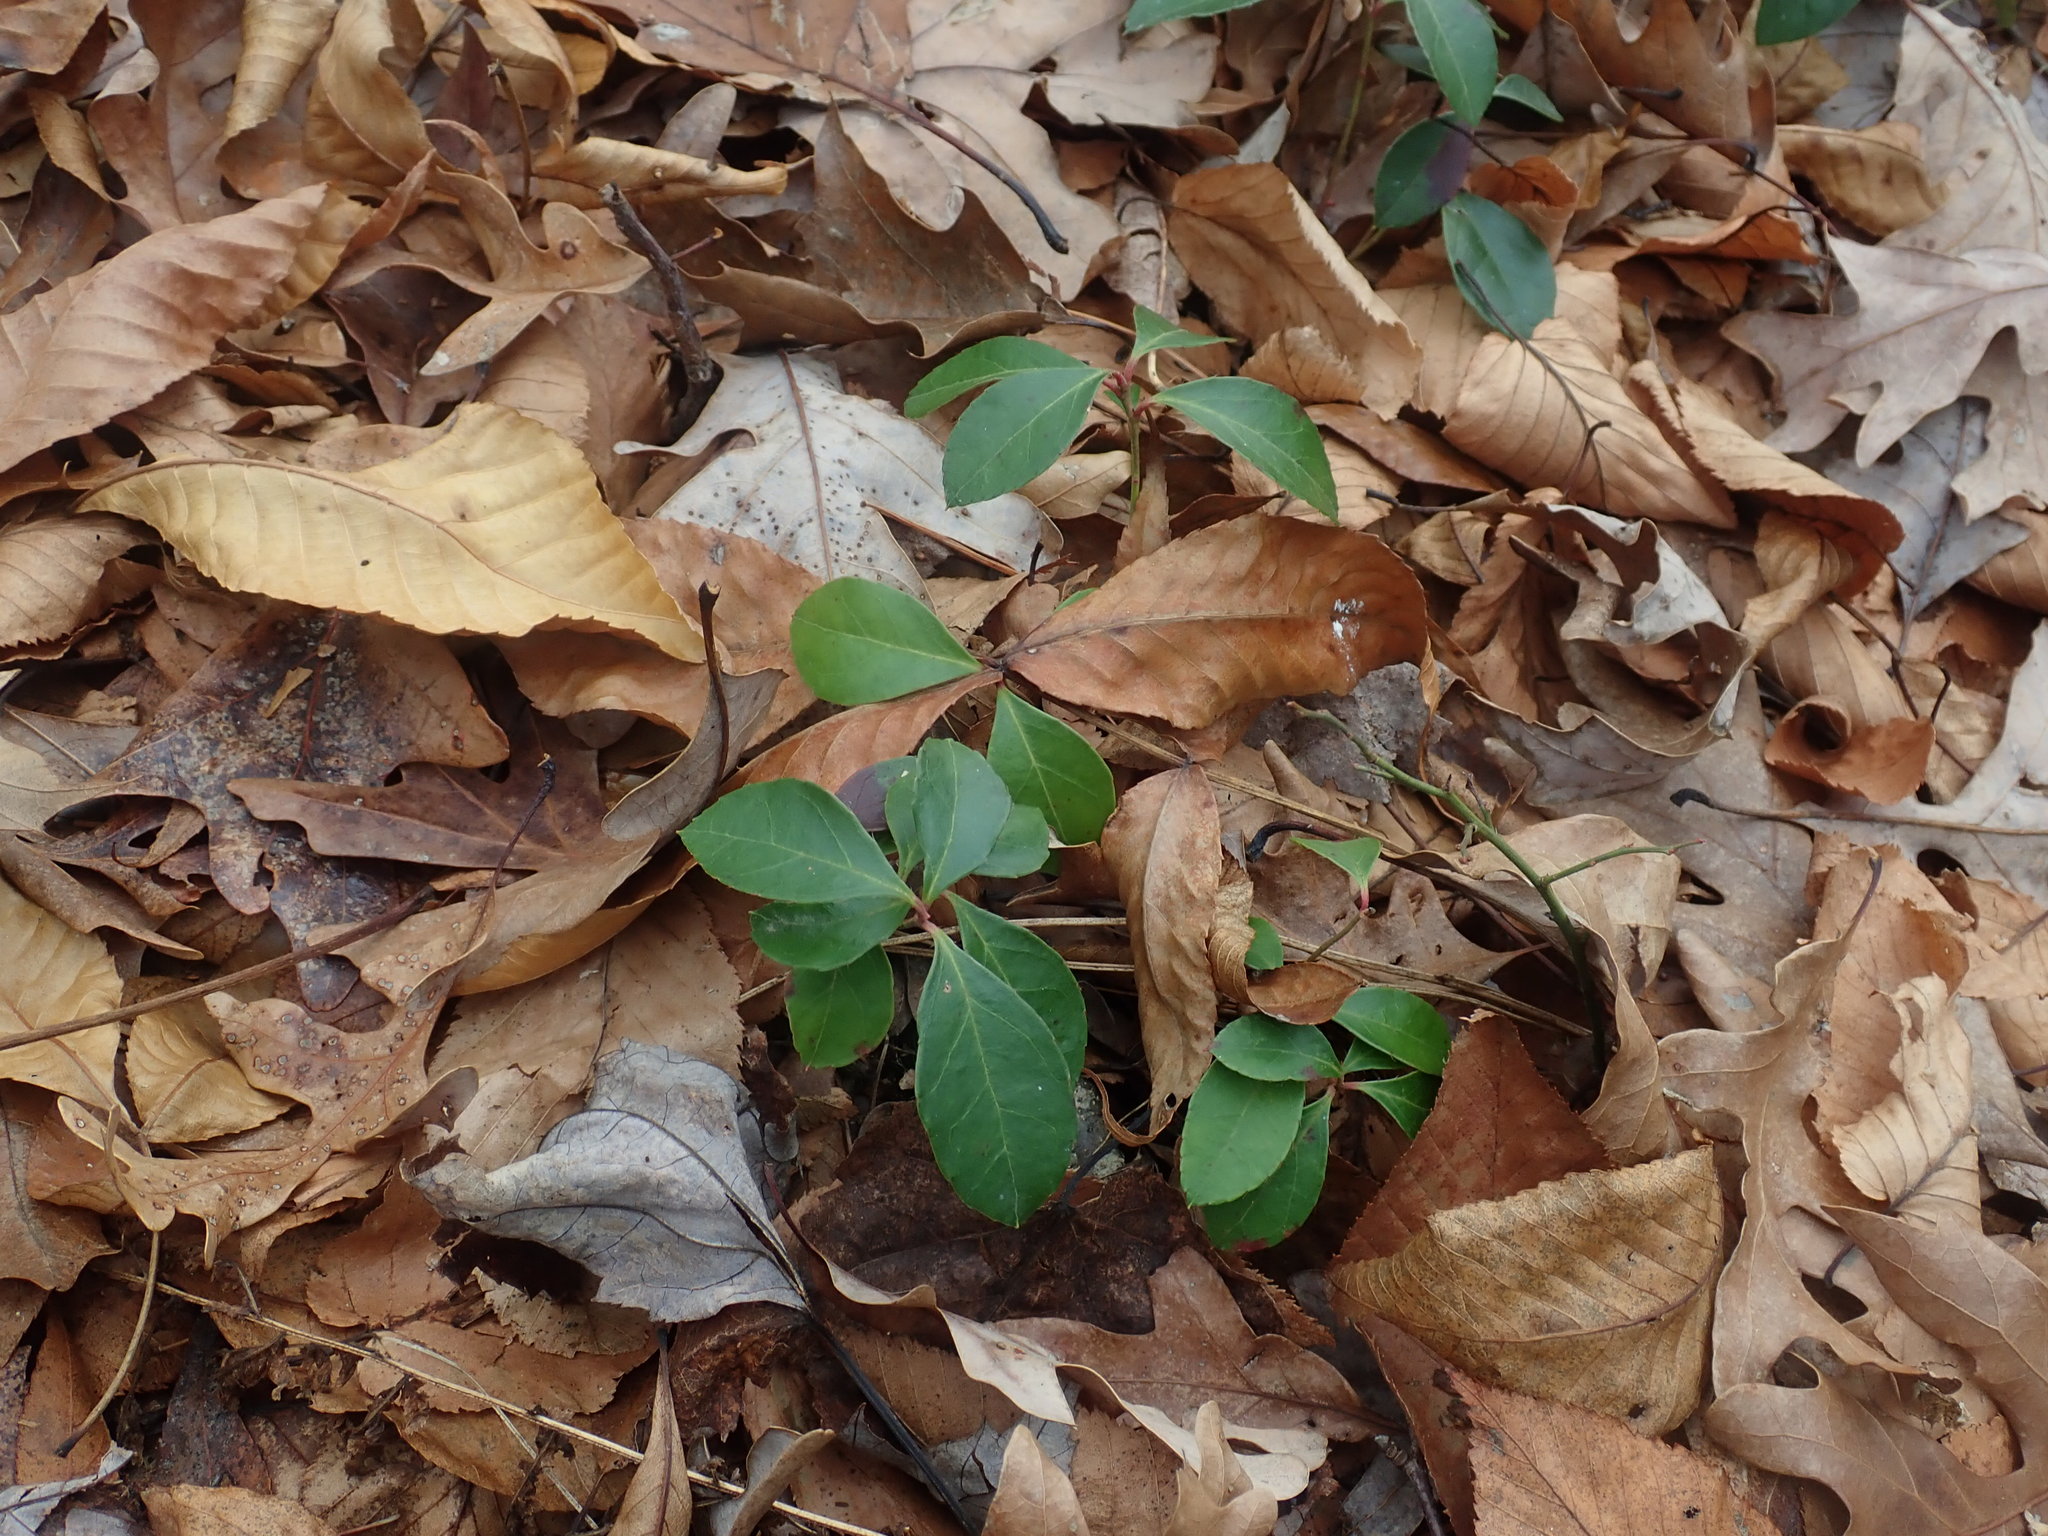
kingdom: Plantae
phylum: Tracheophyta
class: Magnoliopsida
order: Ericales
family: Ericaceae
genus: Gaultheria
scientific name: Gaultheria procumbens
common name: Checkerberry
